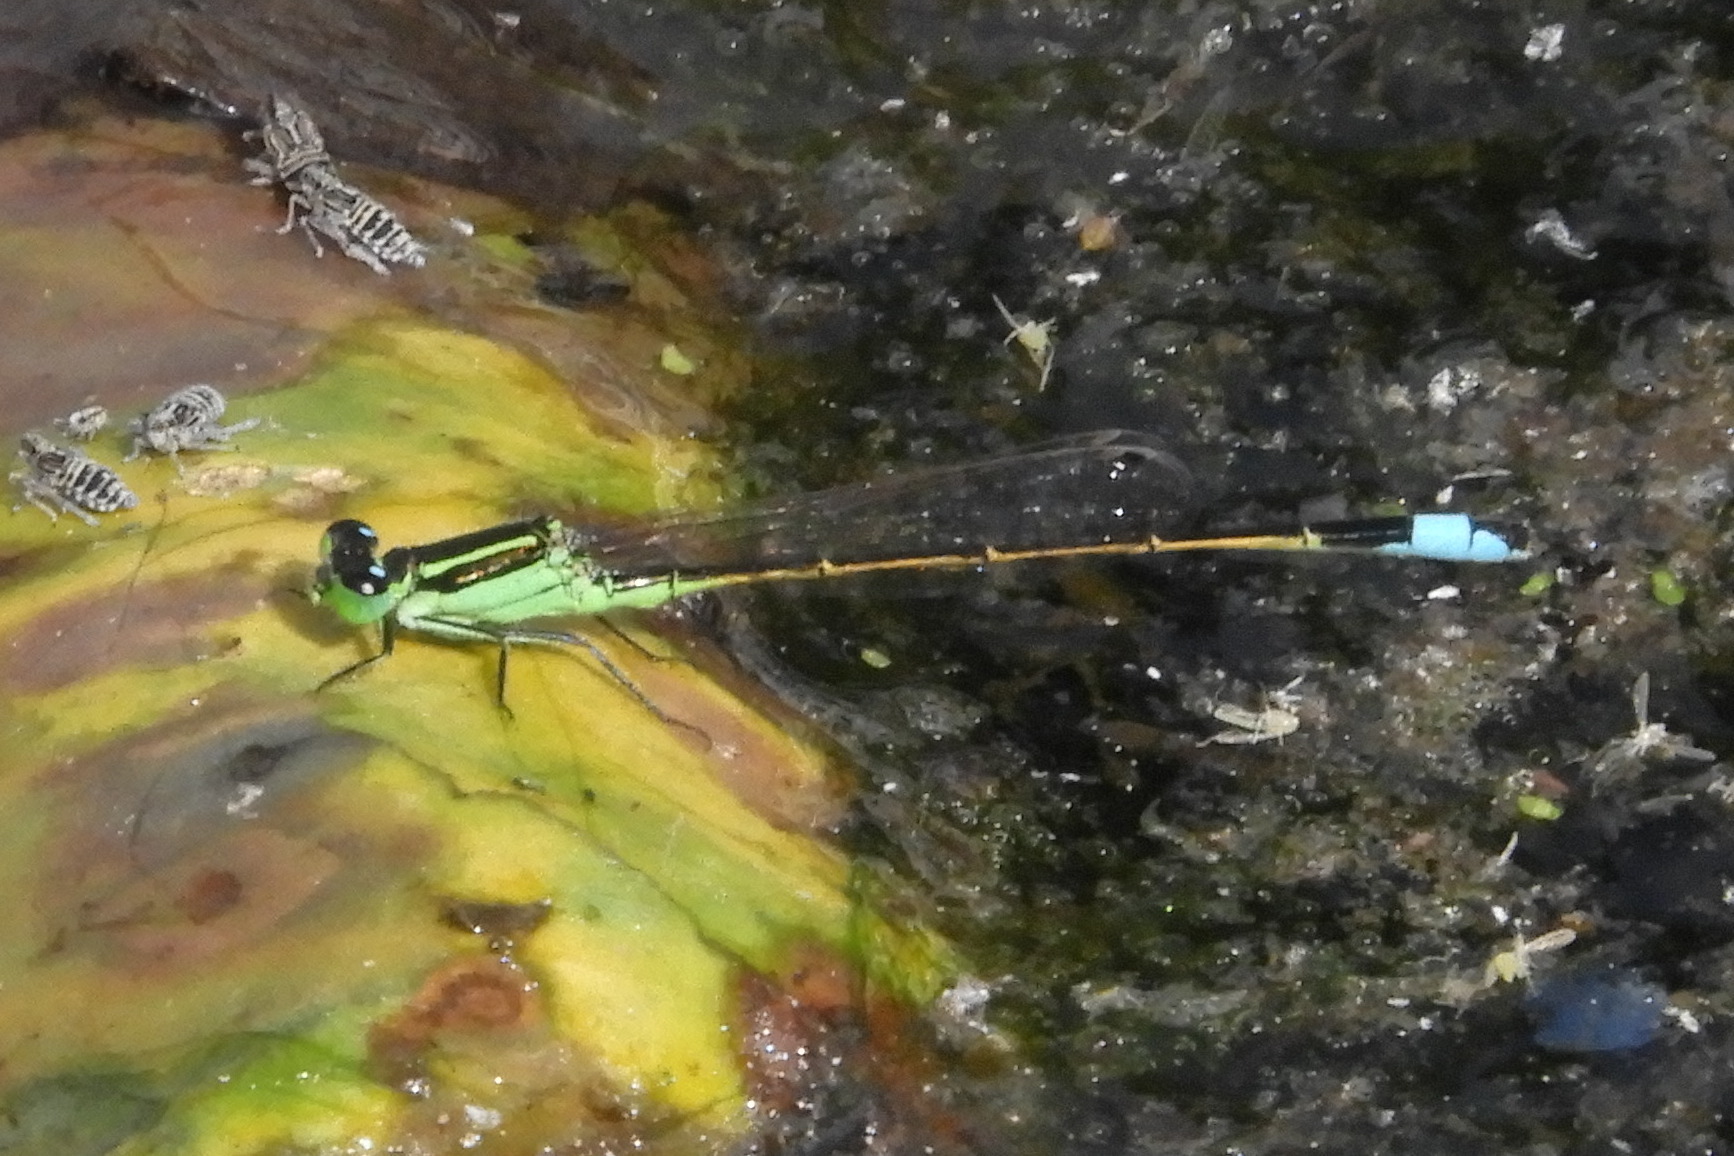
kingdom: Animalia
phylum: Arthropoda
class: Insecta
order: Odonata
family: Coenagrionidae
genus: Ischnura
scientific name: Ischnura ramburii
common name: Rambur's forktail
